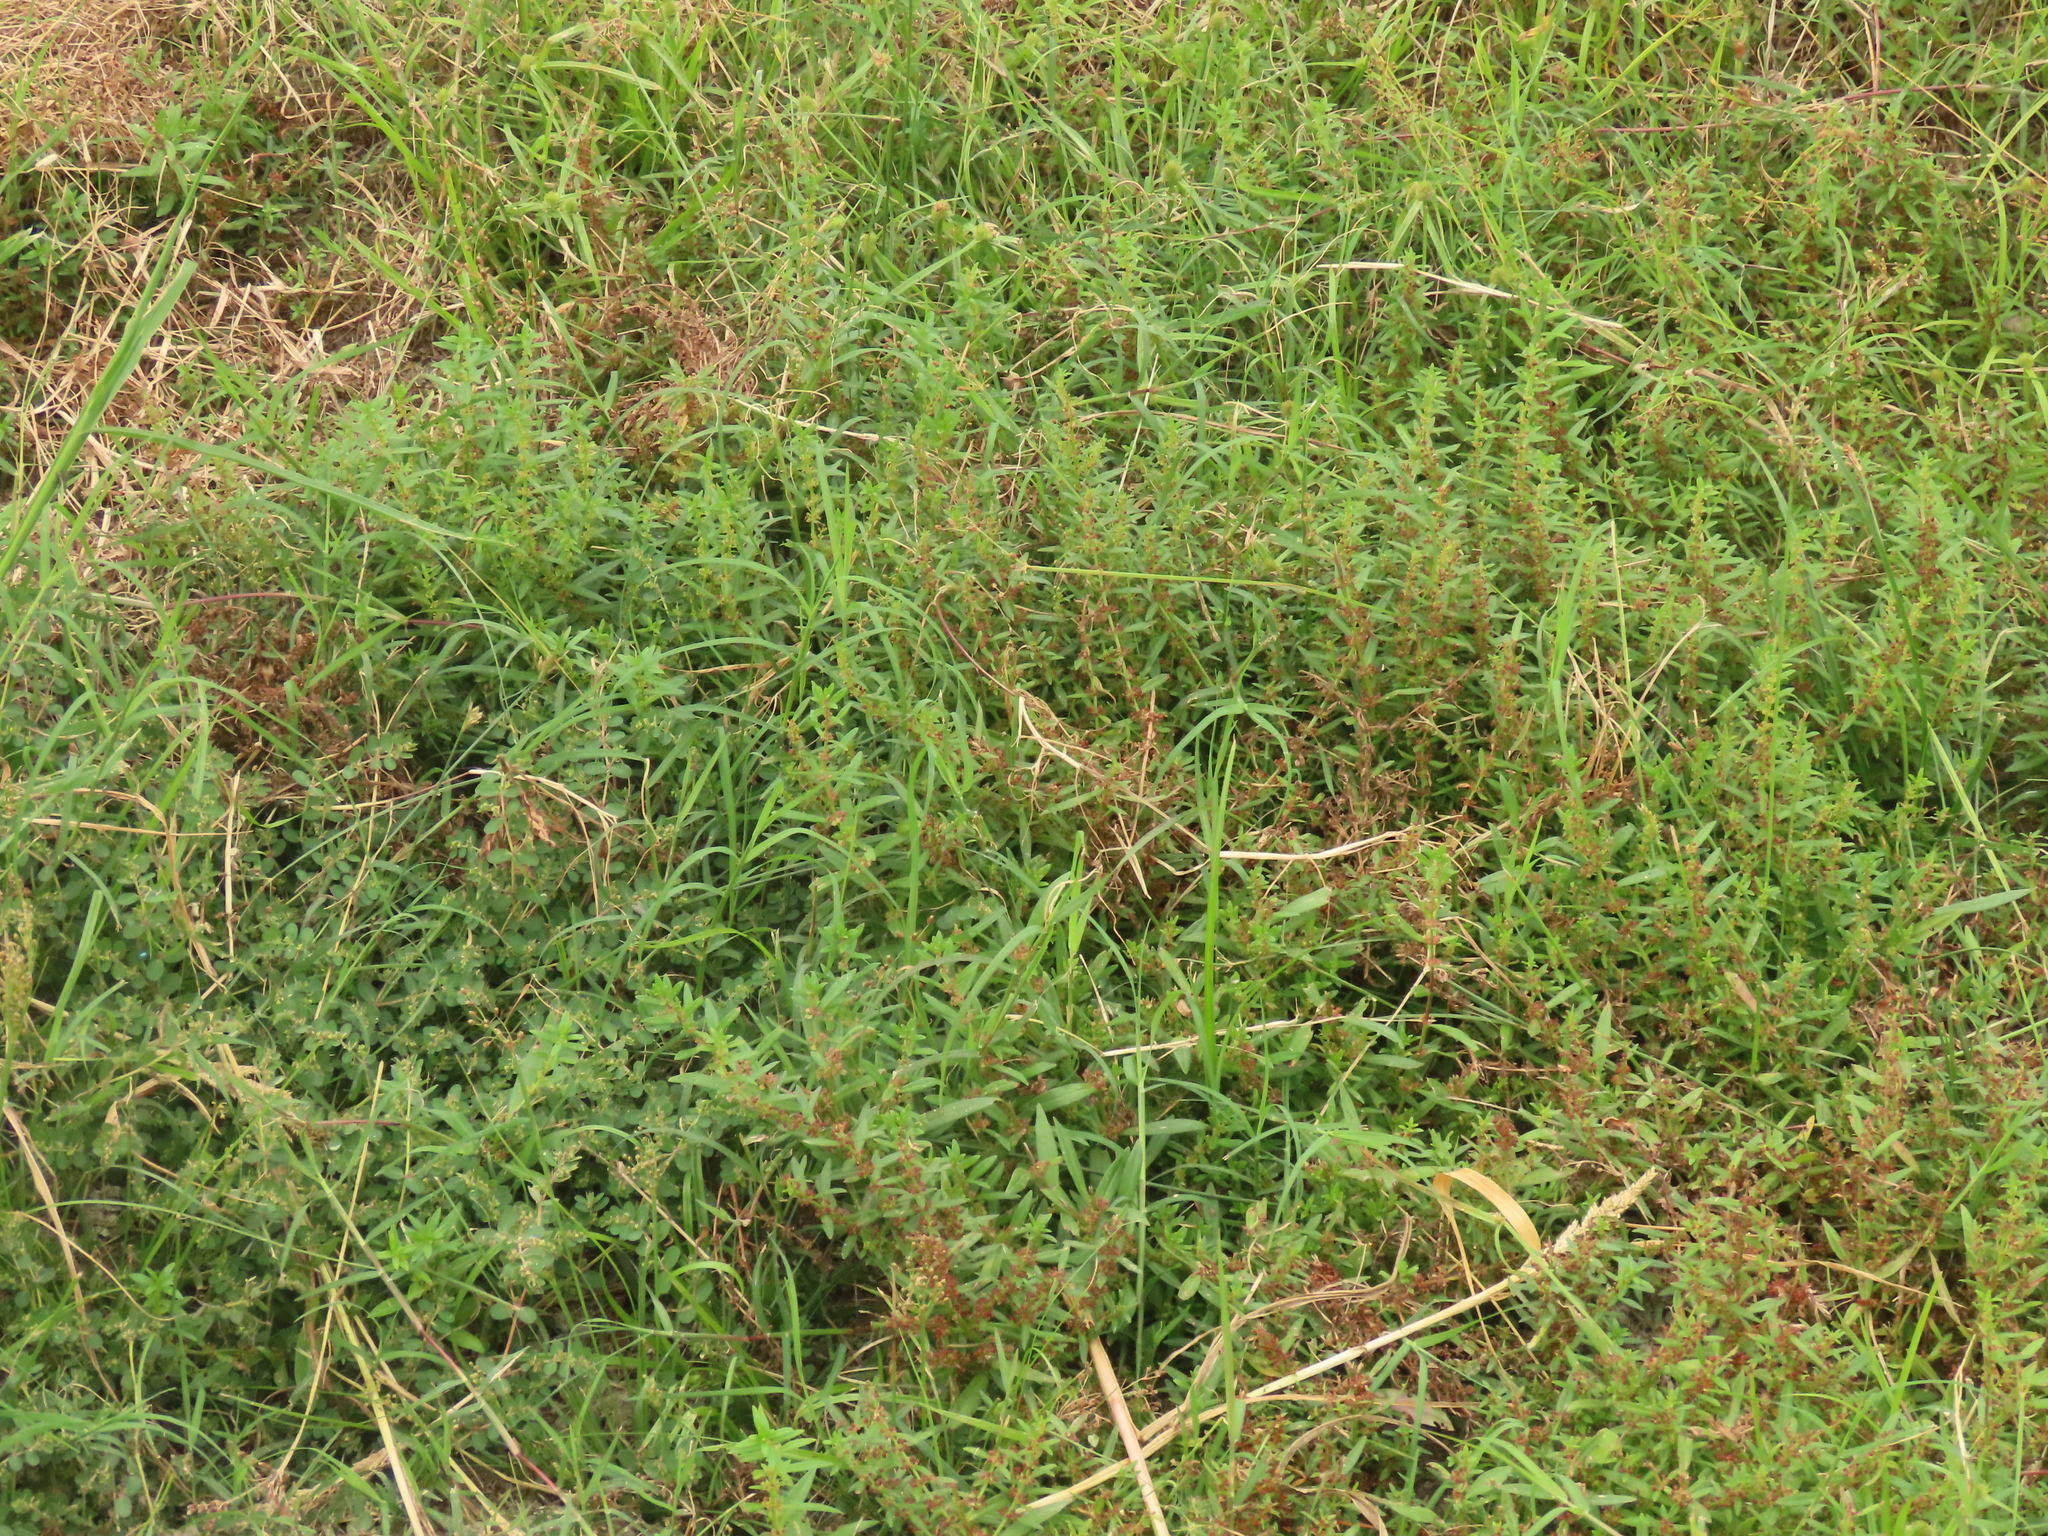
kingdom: Plantae
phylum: Tracheophyta
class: Magnoliopsida
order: Myrtales
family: Lythraceae
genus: Ammannia
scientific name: Ammannia baccifera
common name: Blistering ammania
